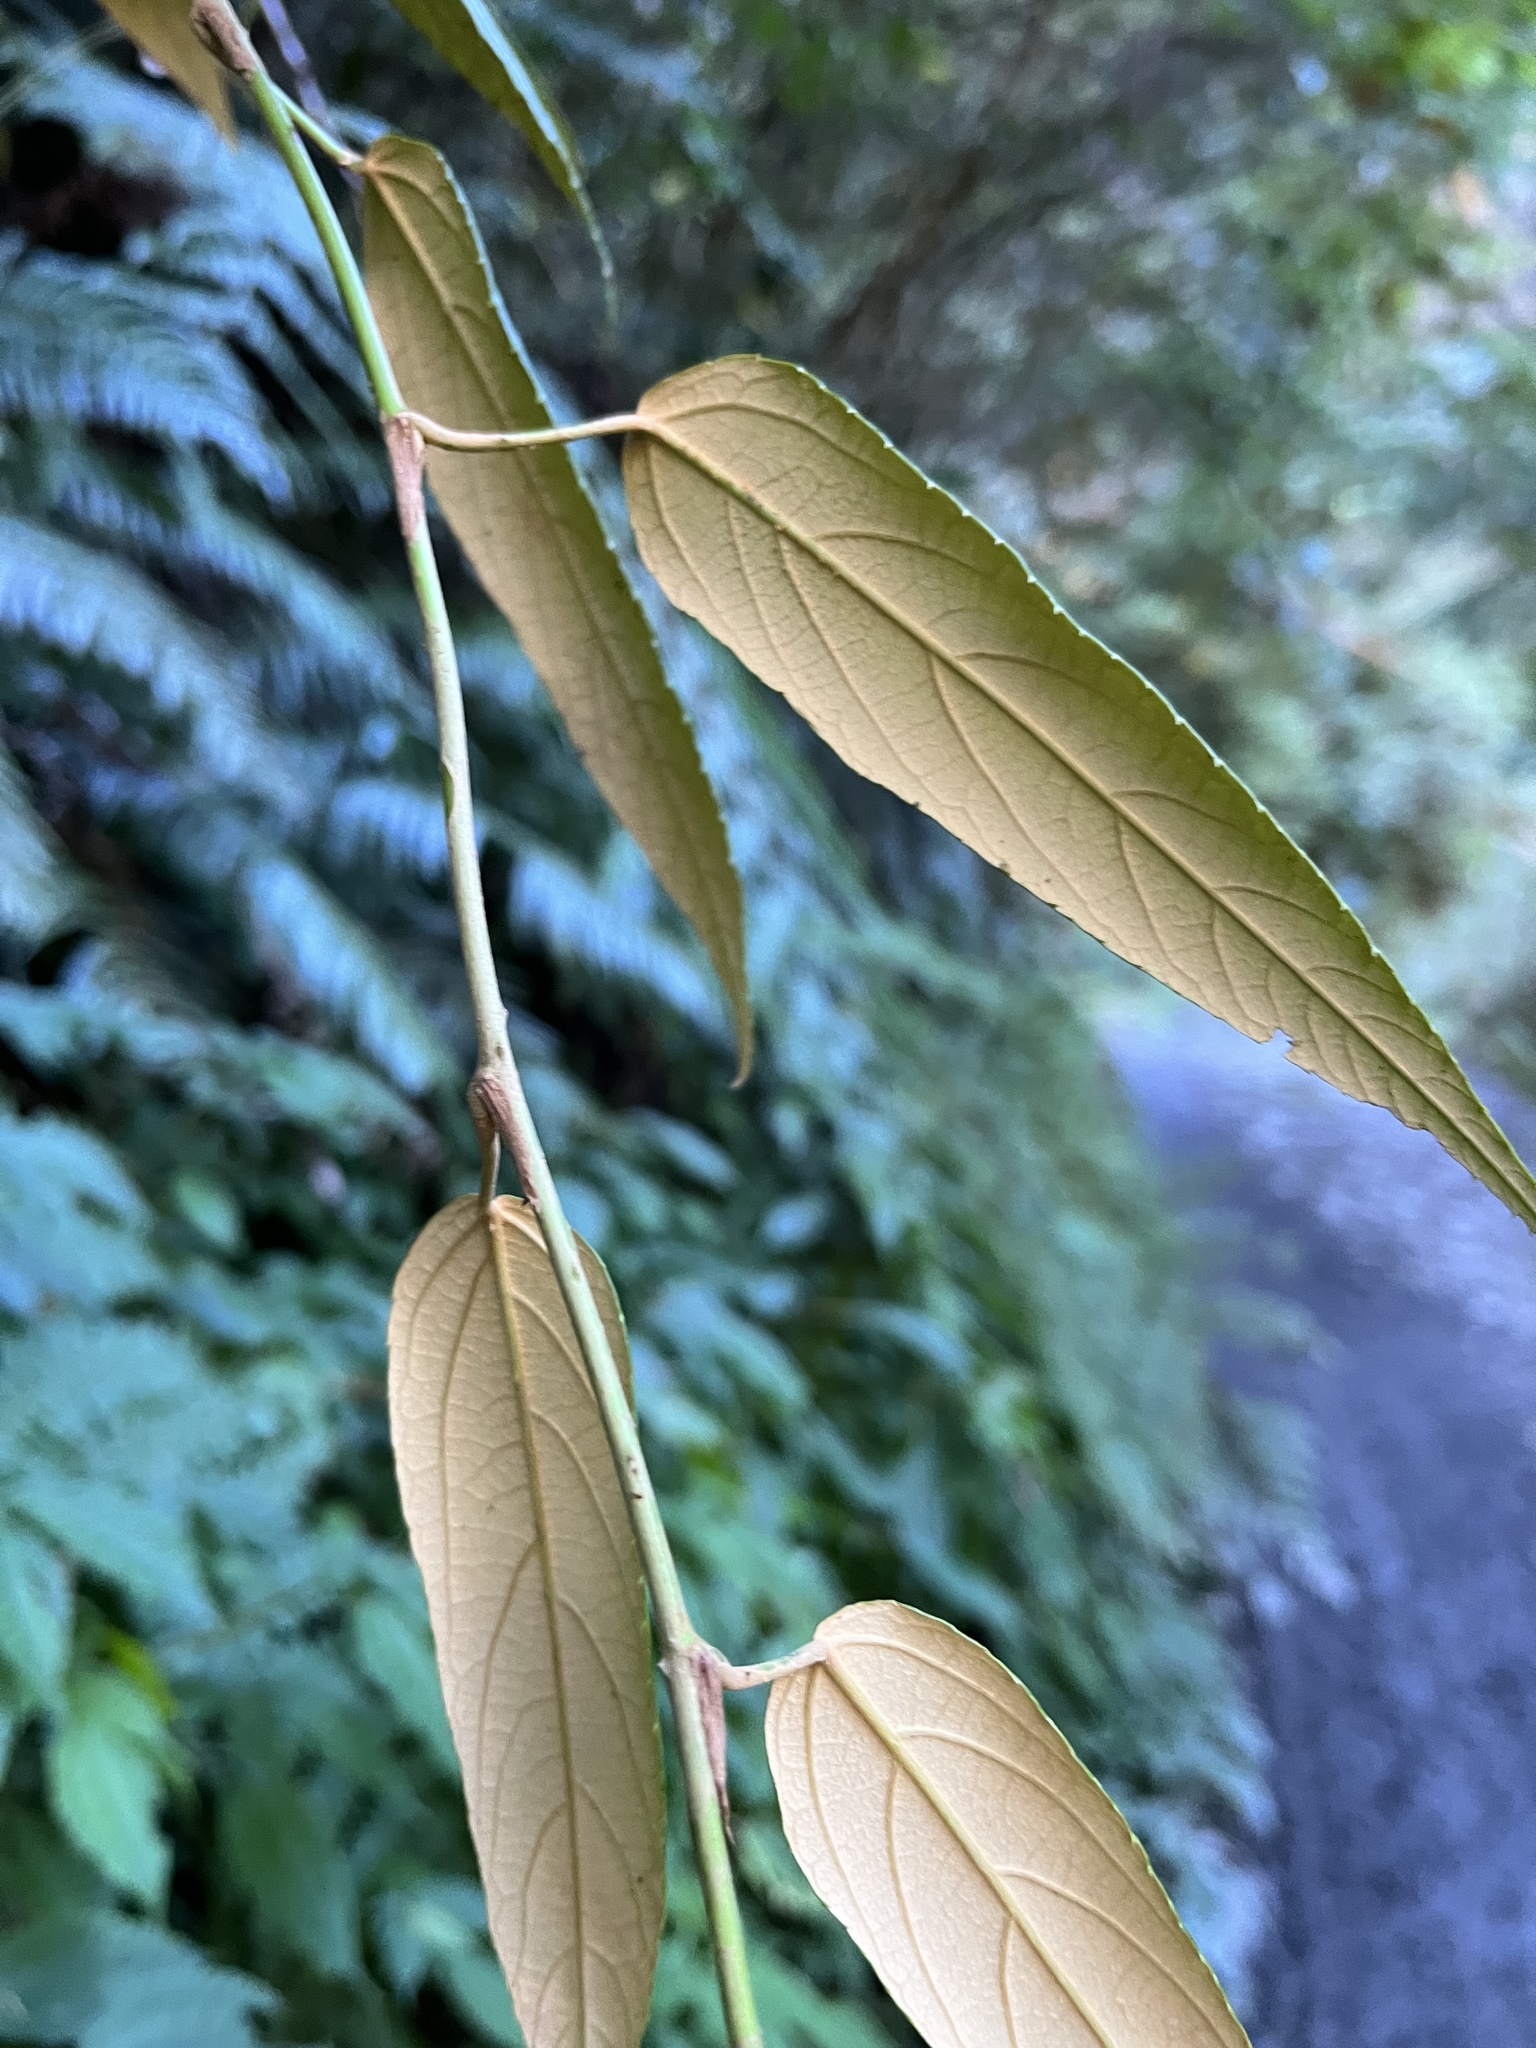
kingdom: Plantae
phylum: Tracheophyta
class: Magnoliopsida
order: Rosales
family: Rosaceae
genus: Rubus
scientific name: Rubus liui
